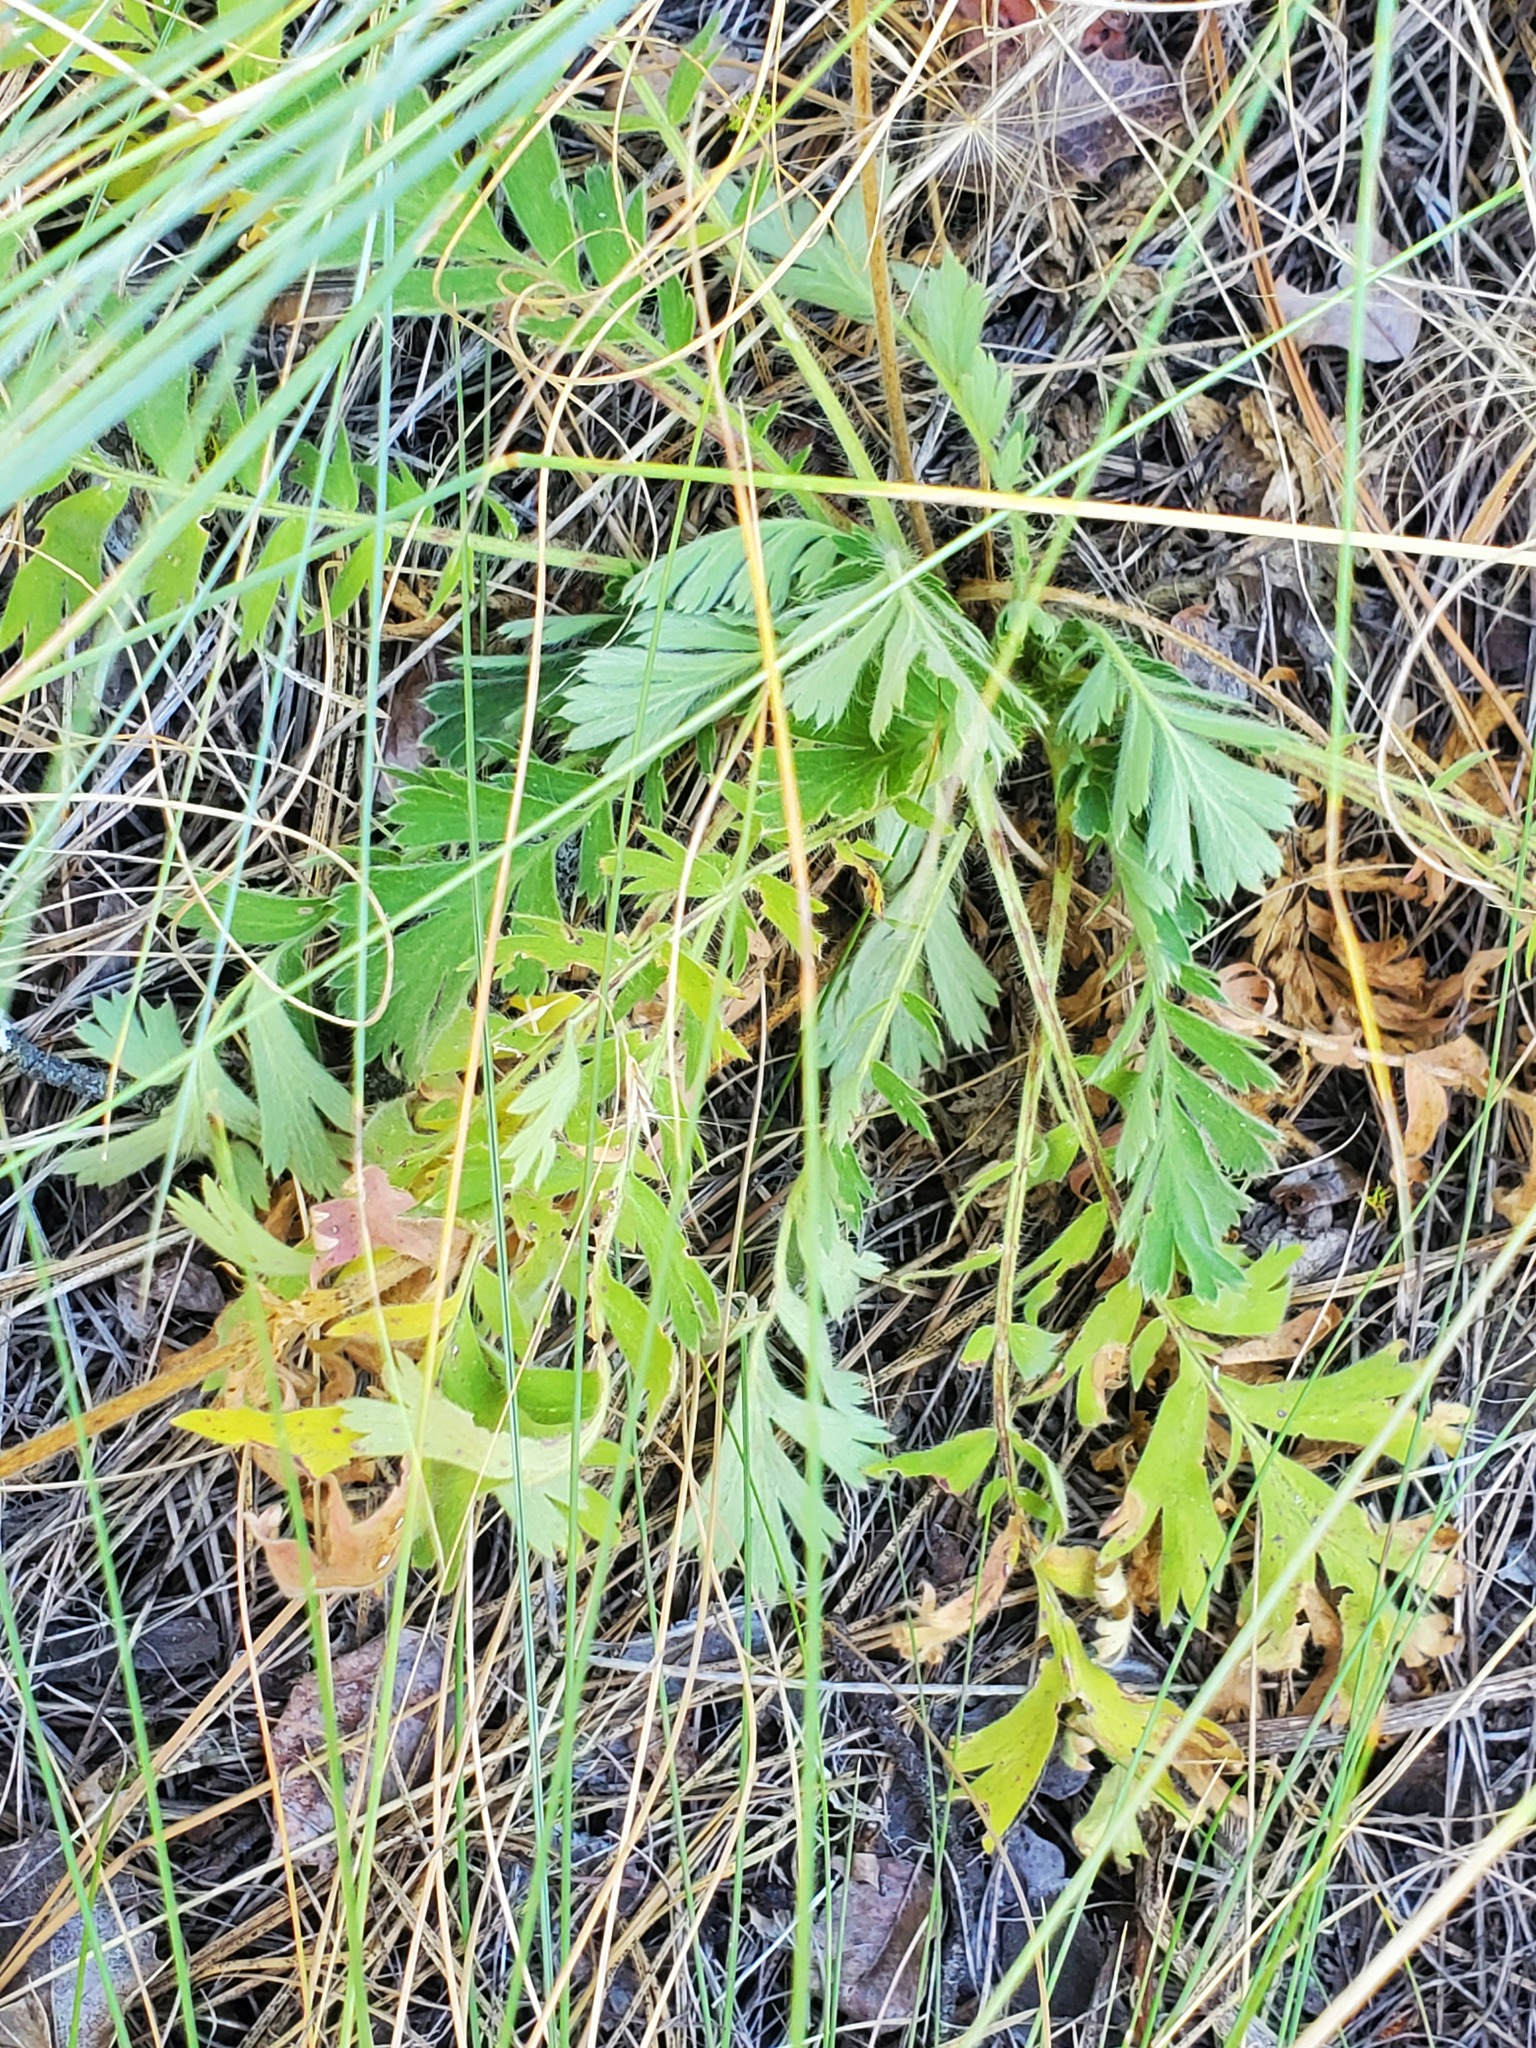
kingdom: Plantae
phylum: Tracheophyta
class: Magnoliopsida
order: Rosales
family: Rosaceae
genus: Geum
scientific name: Geum triflorum
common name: Old man's whiskers
